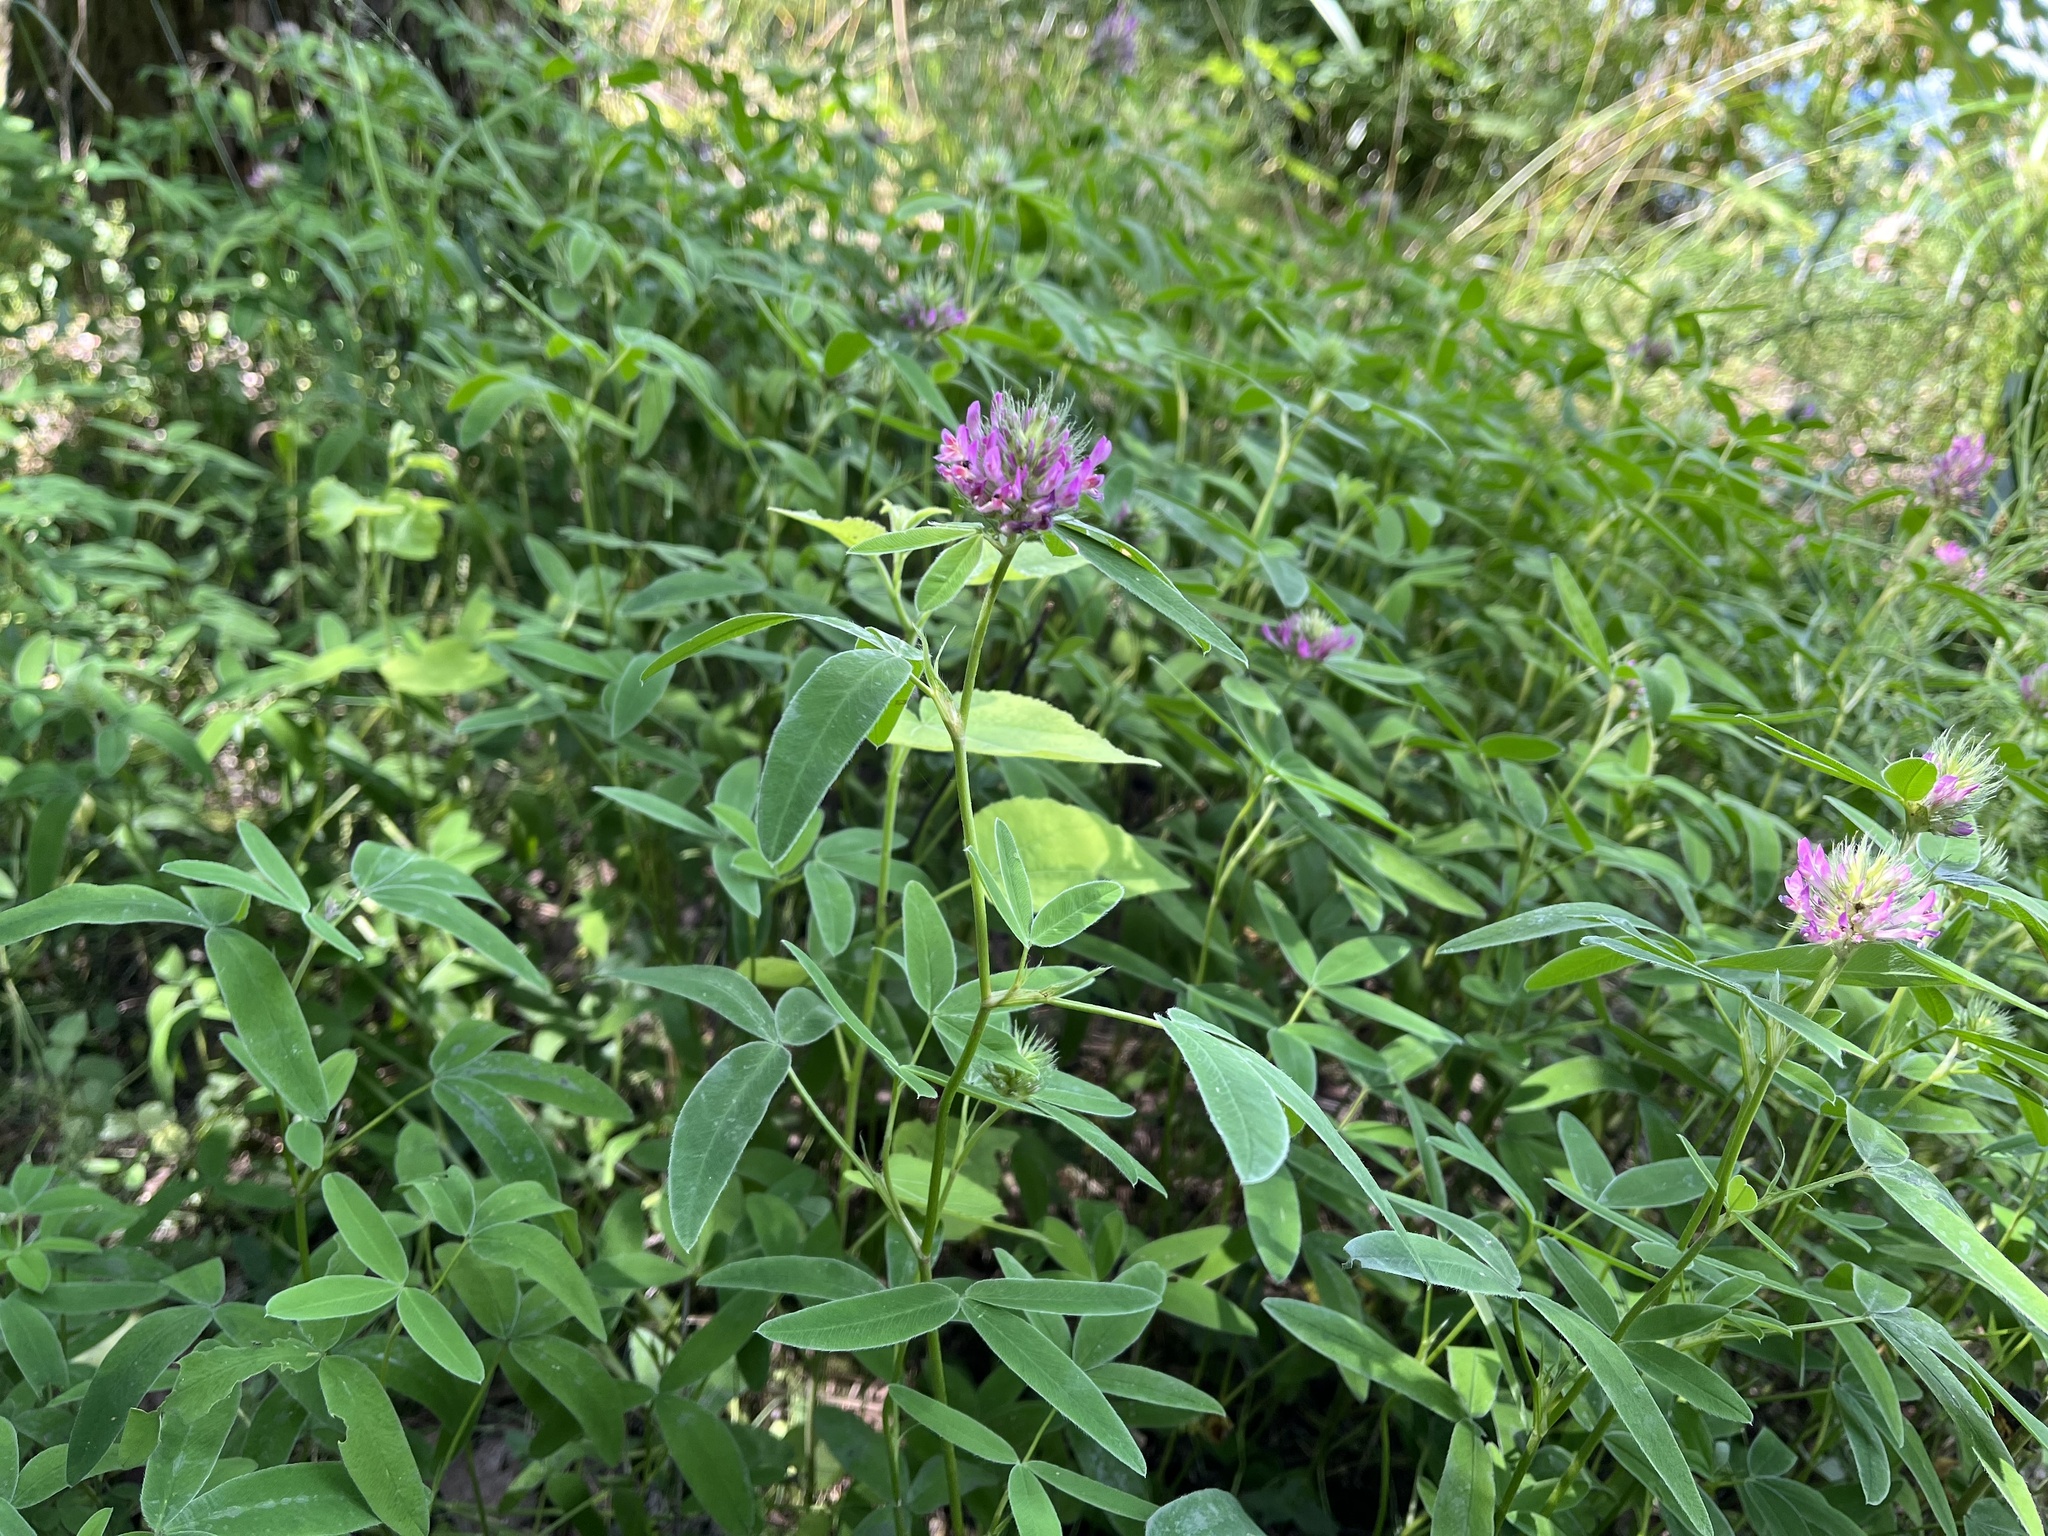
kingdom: Plantae
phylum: Tracheophyta
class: Magnoliopsida
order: Fabales
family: Fabaceae
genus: Trifolium
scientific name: Trifolium medium
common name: Zigzag clover
